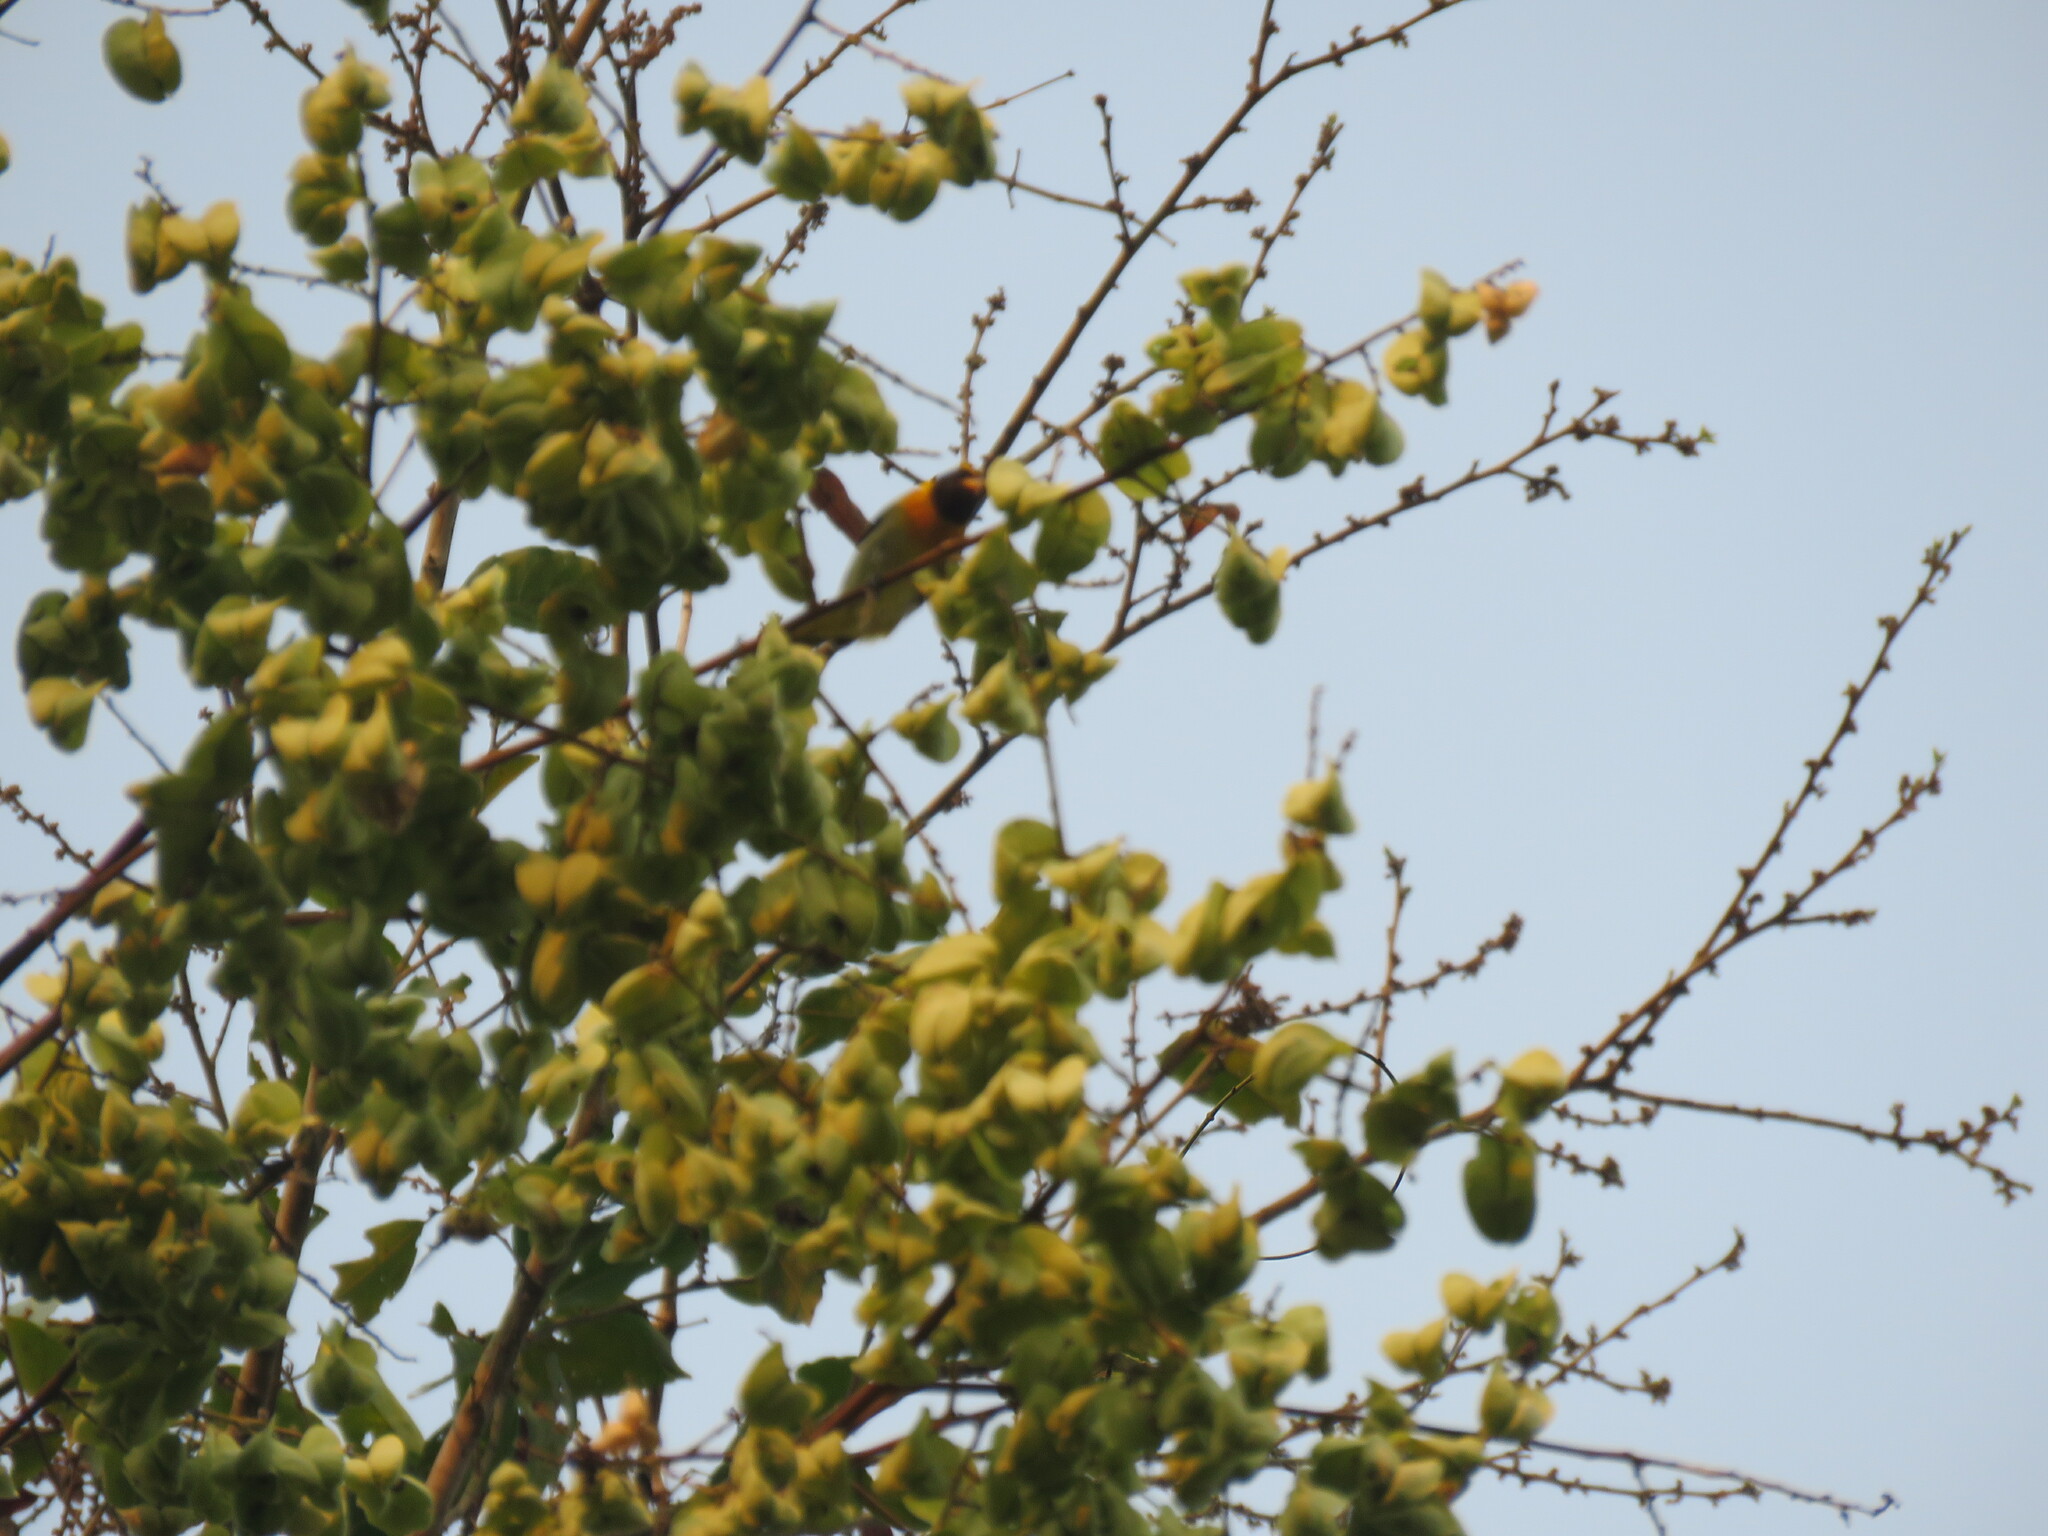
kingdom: Animalia
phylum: Chordata
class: Aves
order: Passeriformes
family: Thraupidae
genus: Hemithraupis
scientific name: Hemithraupis guira
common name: Guira tanager
